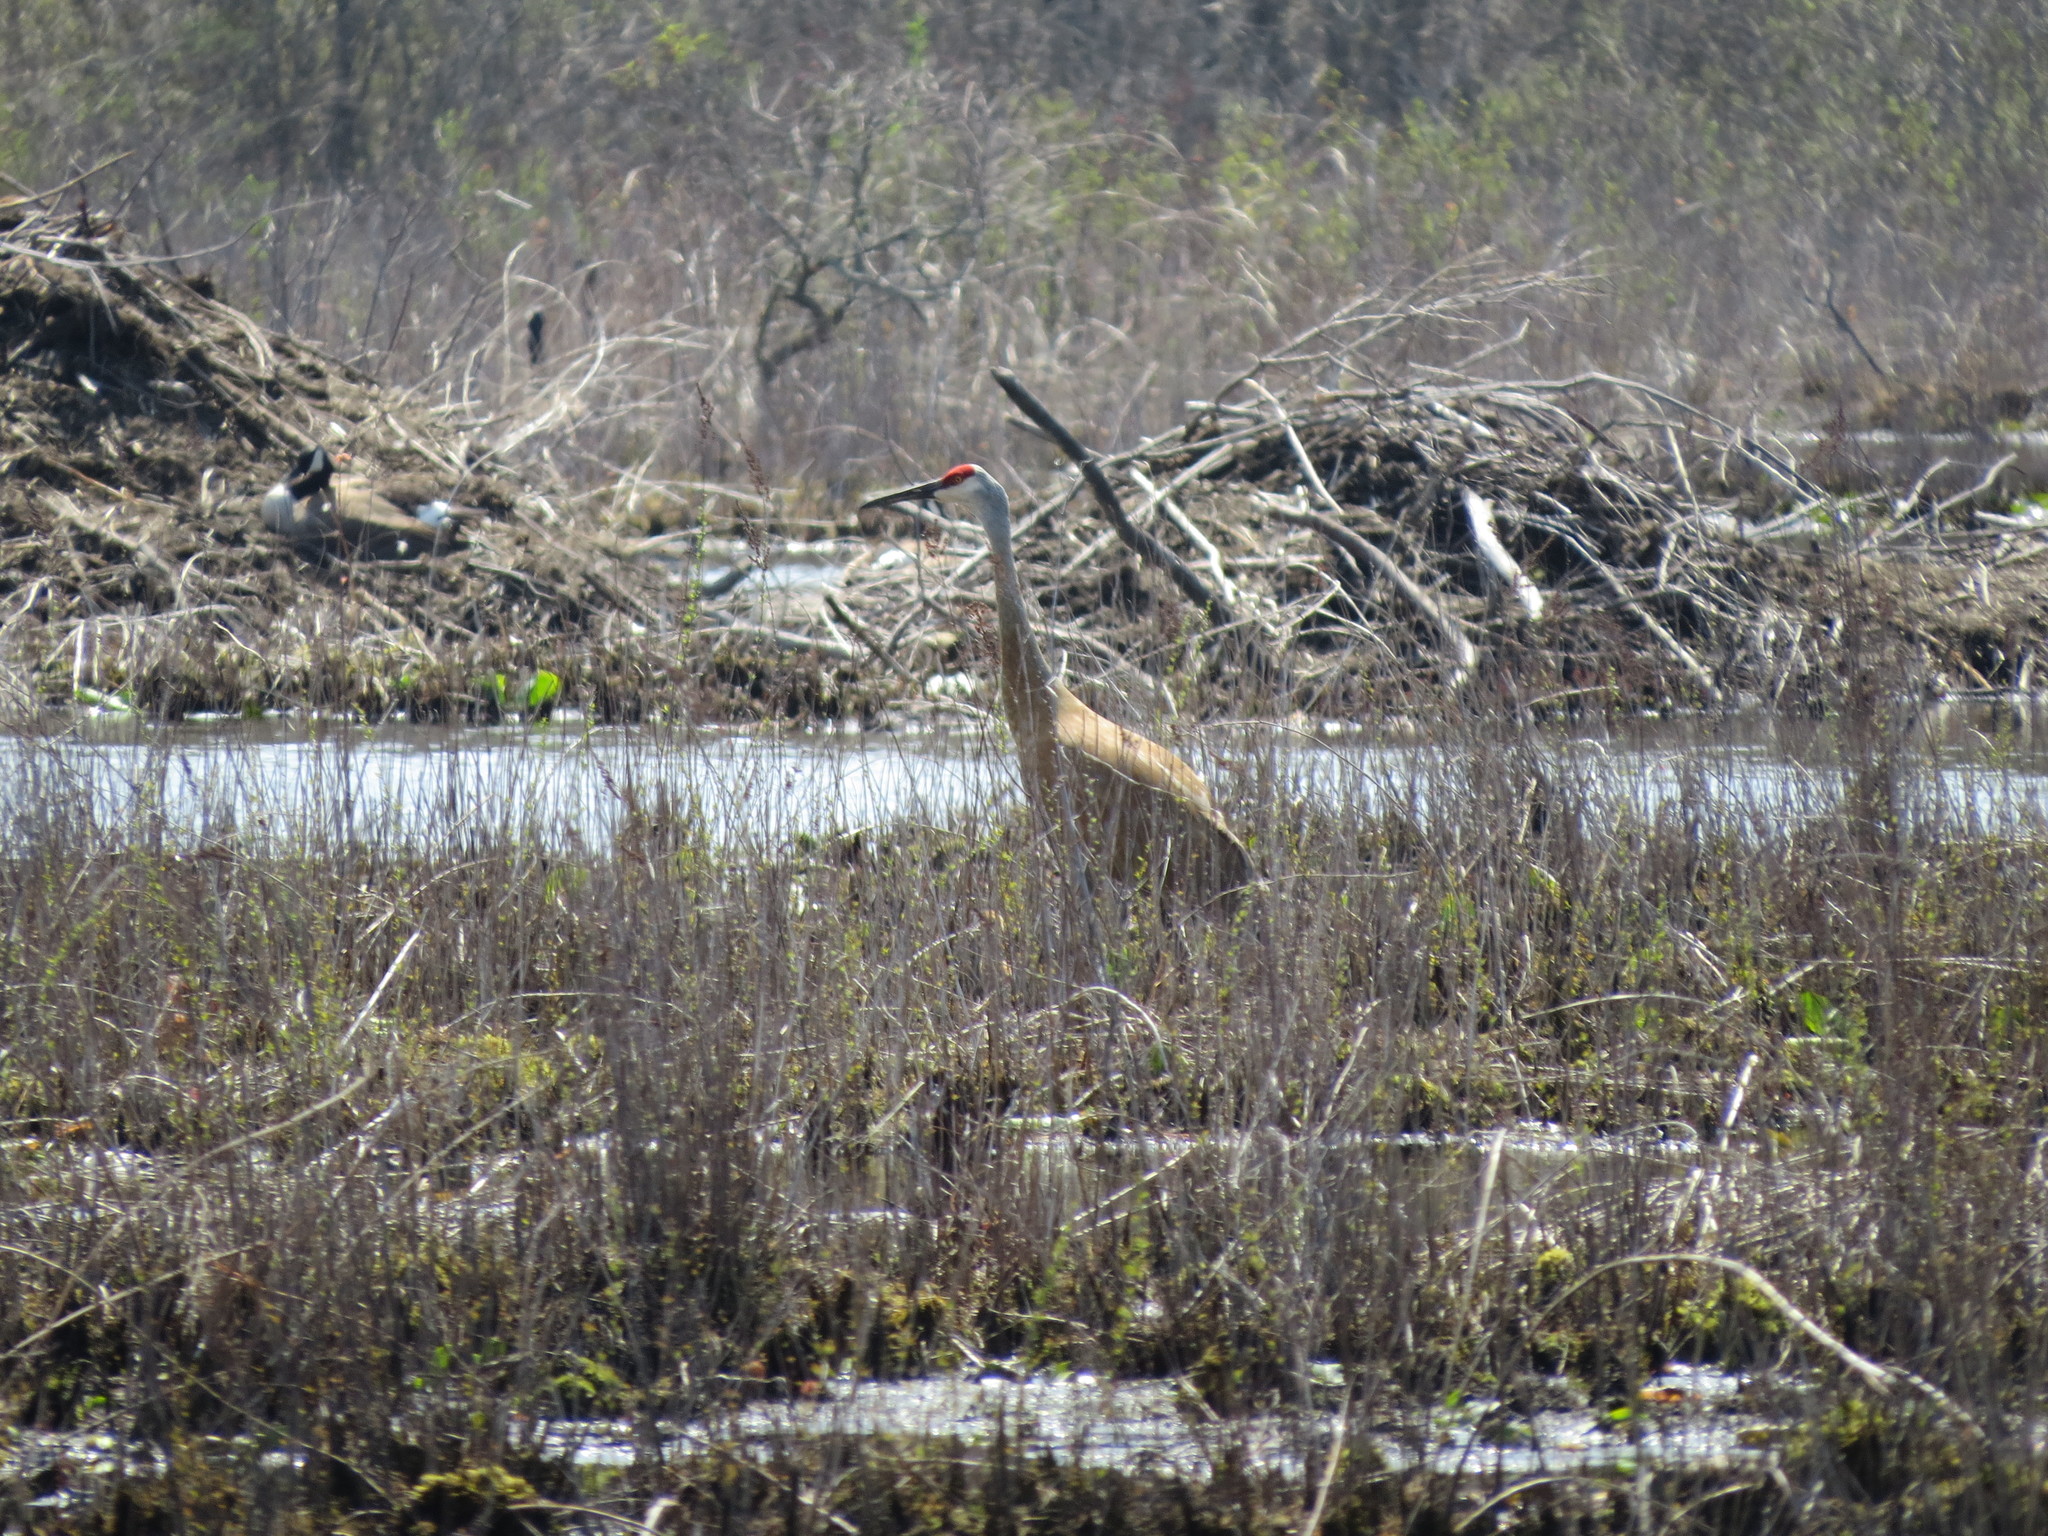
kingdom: Animalia
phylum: Chordata
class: Aves
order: Gruiformes
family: Gruidae
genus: Grus
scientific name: Grus canadensis
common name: Sandhill crane
